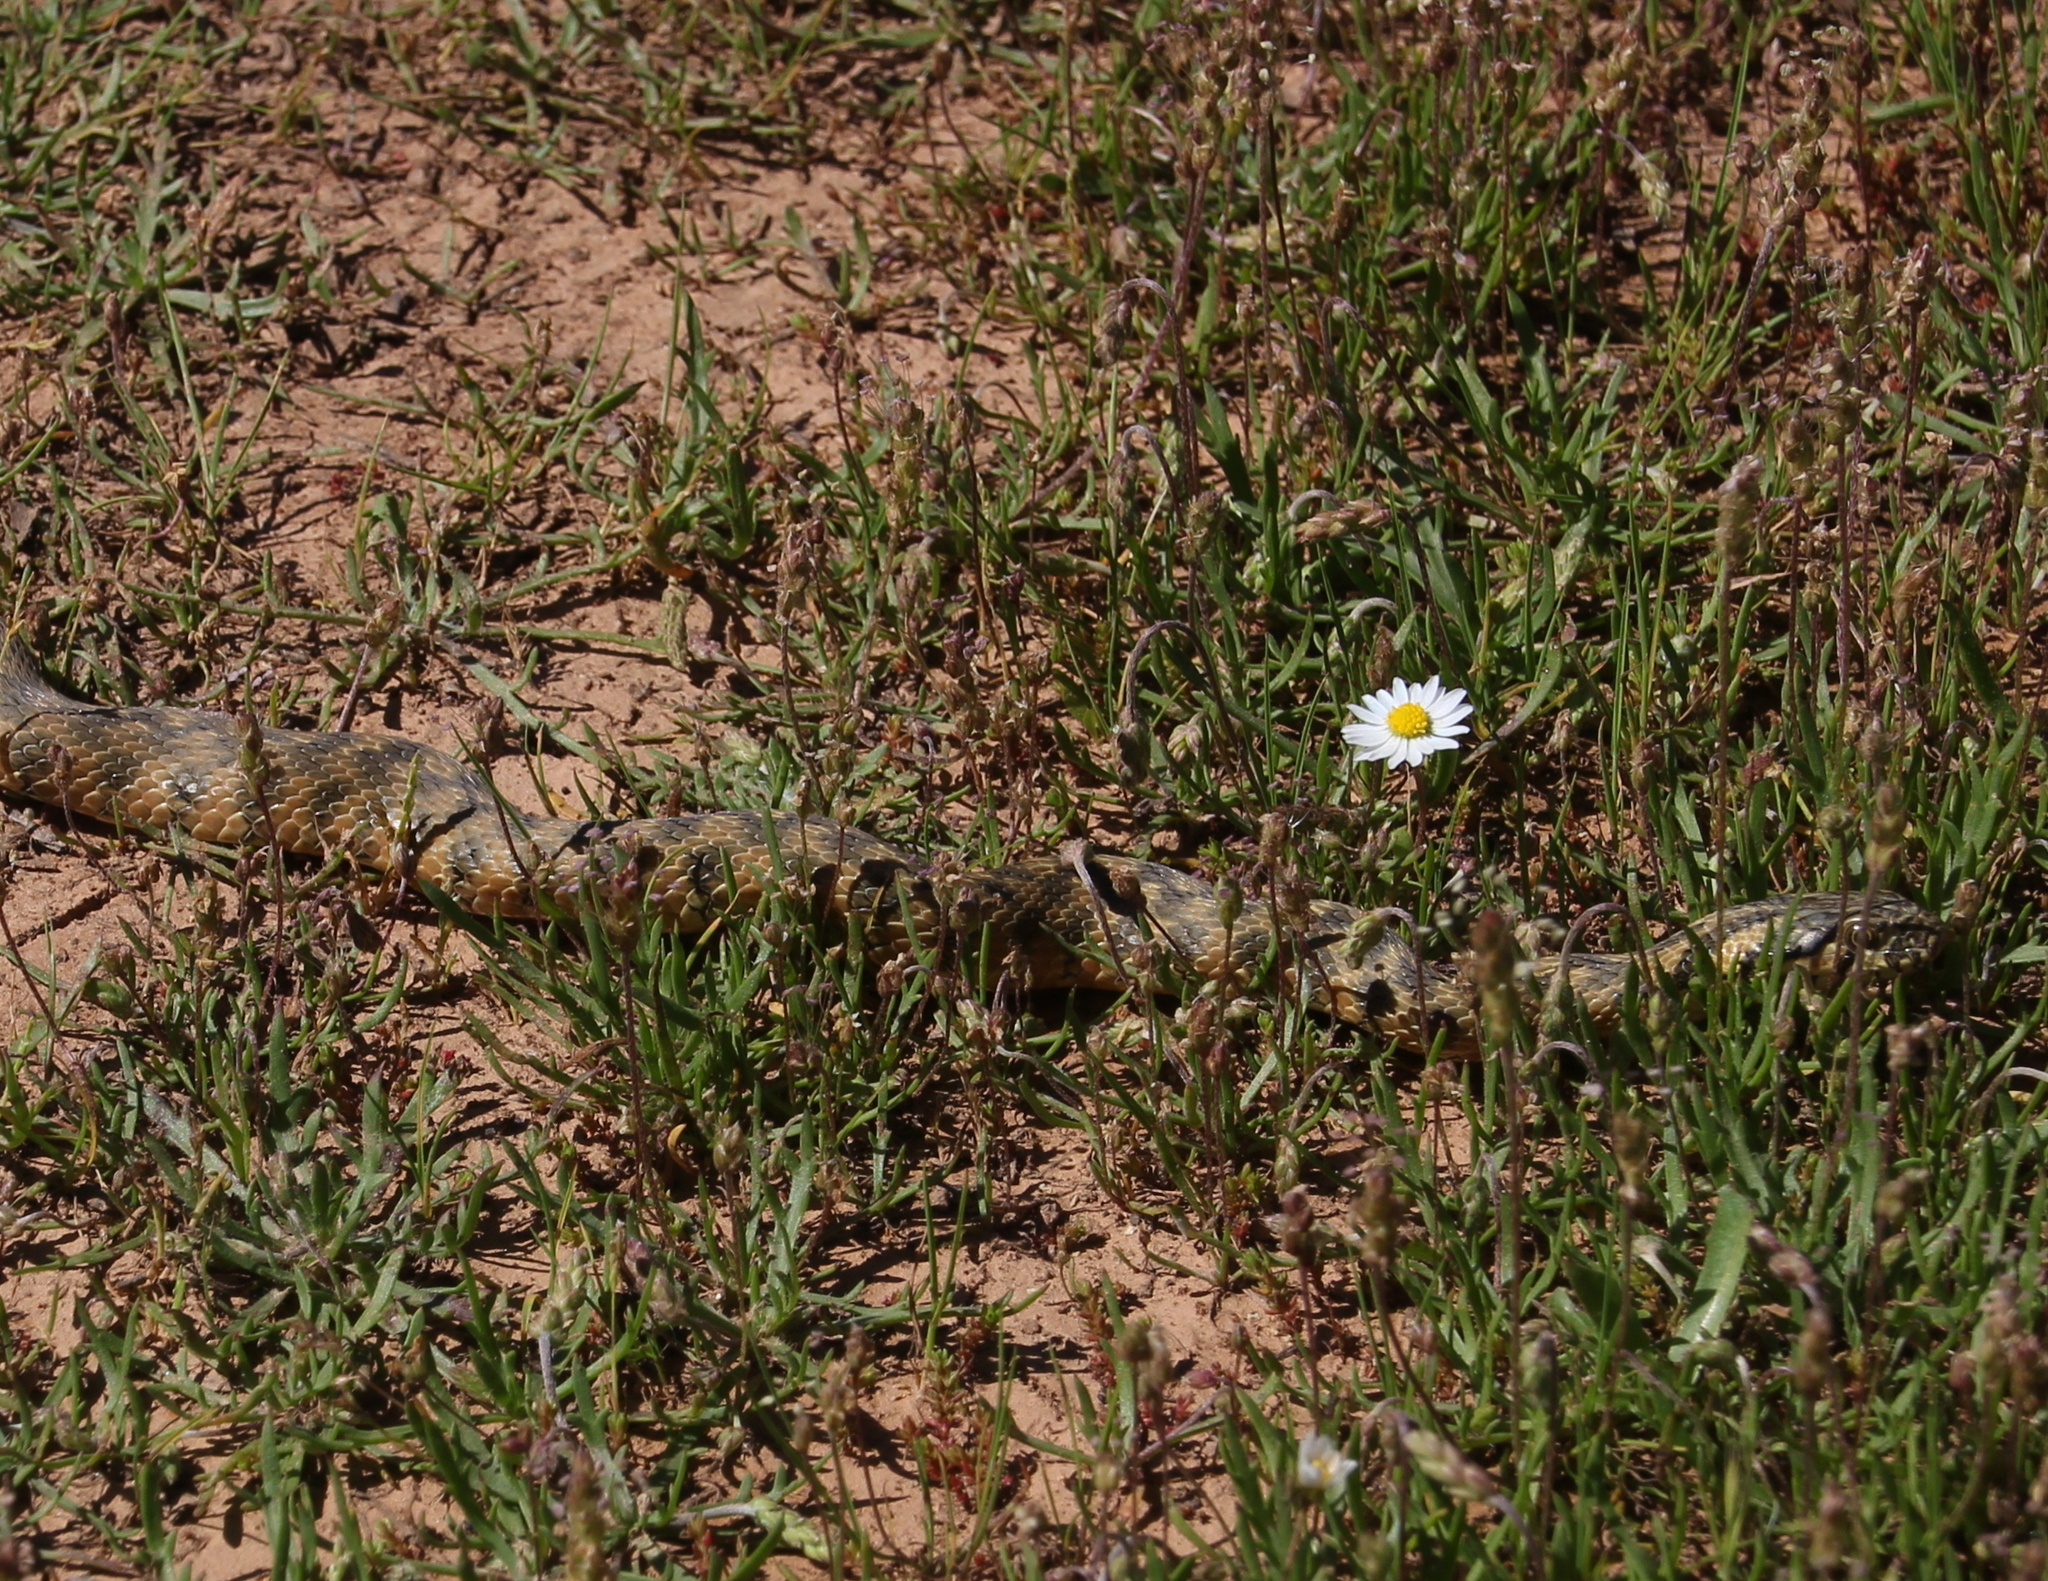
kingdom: Animalia
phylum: Chordata
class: Squamata
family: Colubridae
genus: Natrix
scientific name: Natrix maura
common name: Viperine water snake
